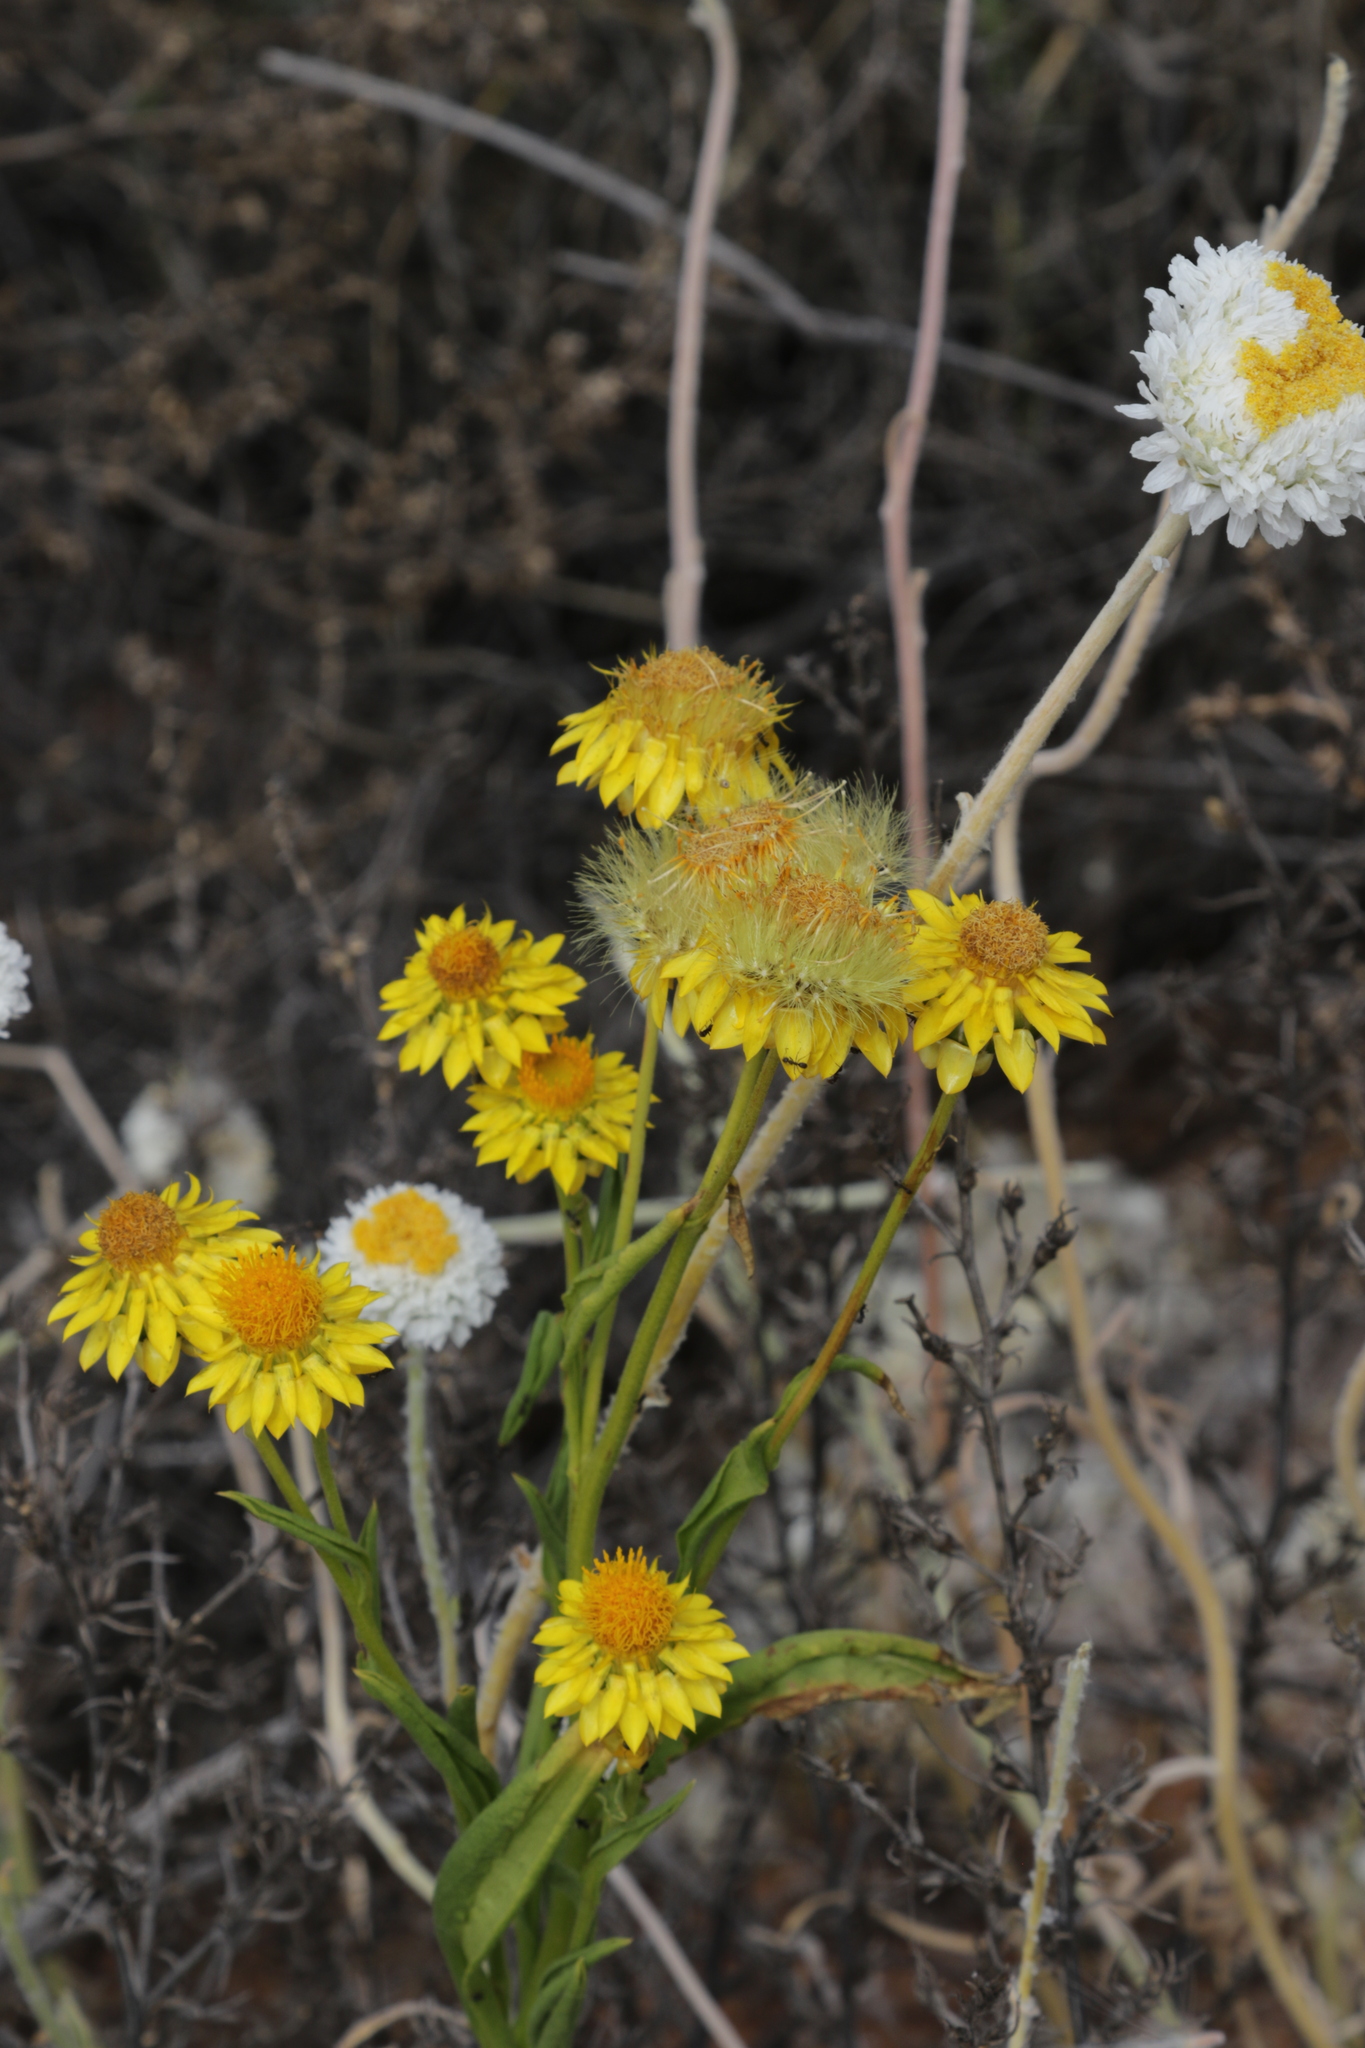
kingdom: Plantae
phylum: Tracheophyta
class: Magnoliopsida
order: Asterales
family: Asteraceae
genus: Xerochrysum
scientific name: Xerochrysum interiore
